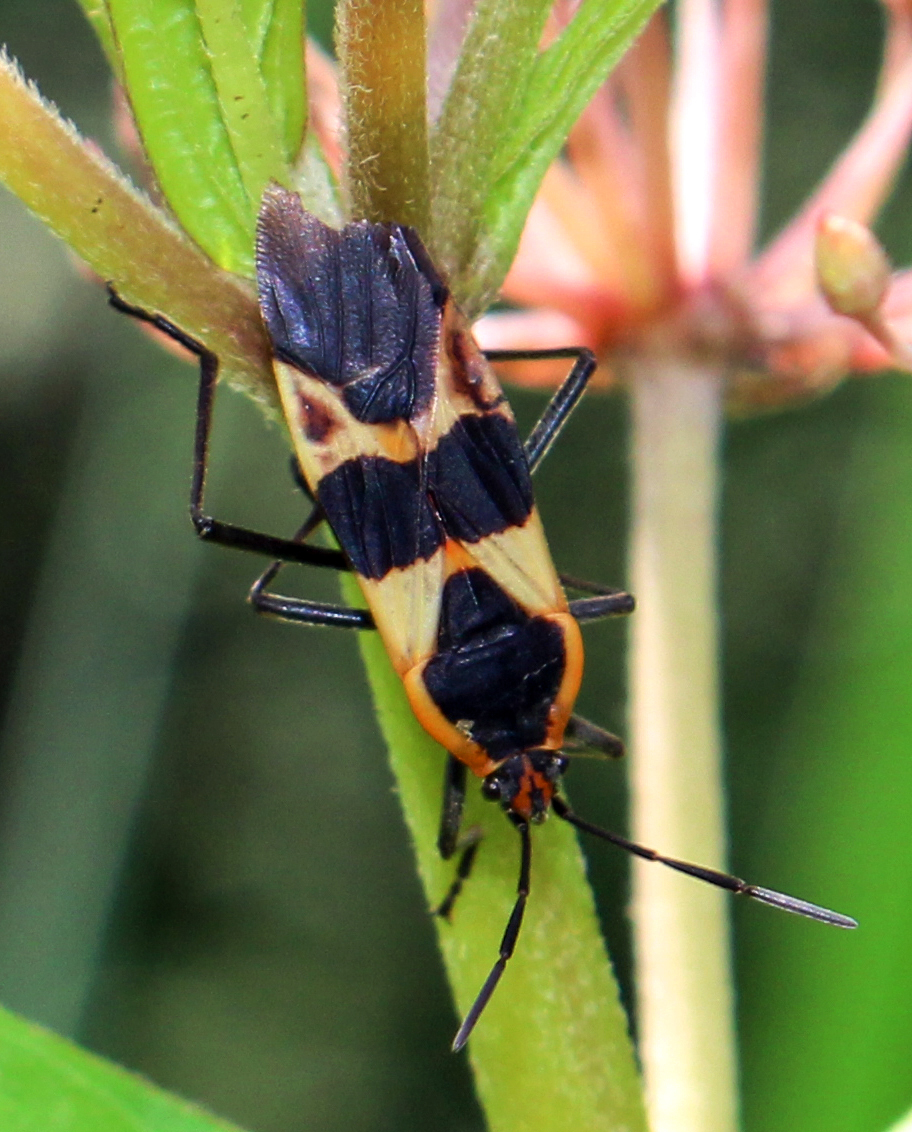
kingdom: Animalia
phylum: Arthropoda
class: Insecta
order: Hemiptera
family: Lygaeidae
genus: Oncopeltus
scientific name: Oncopeltus fasciatus
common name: Large milkweed bug
